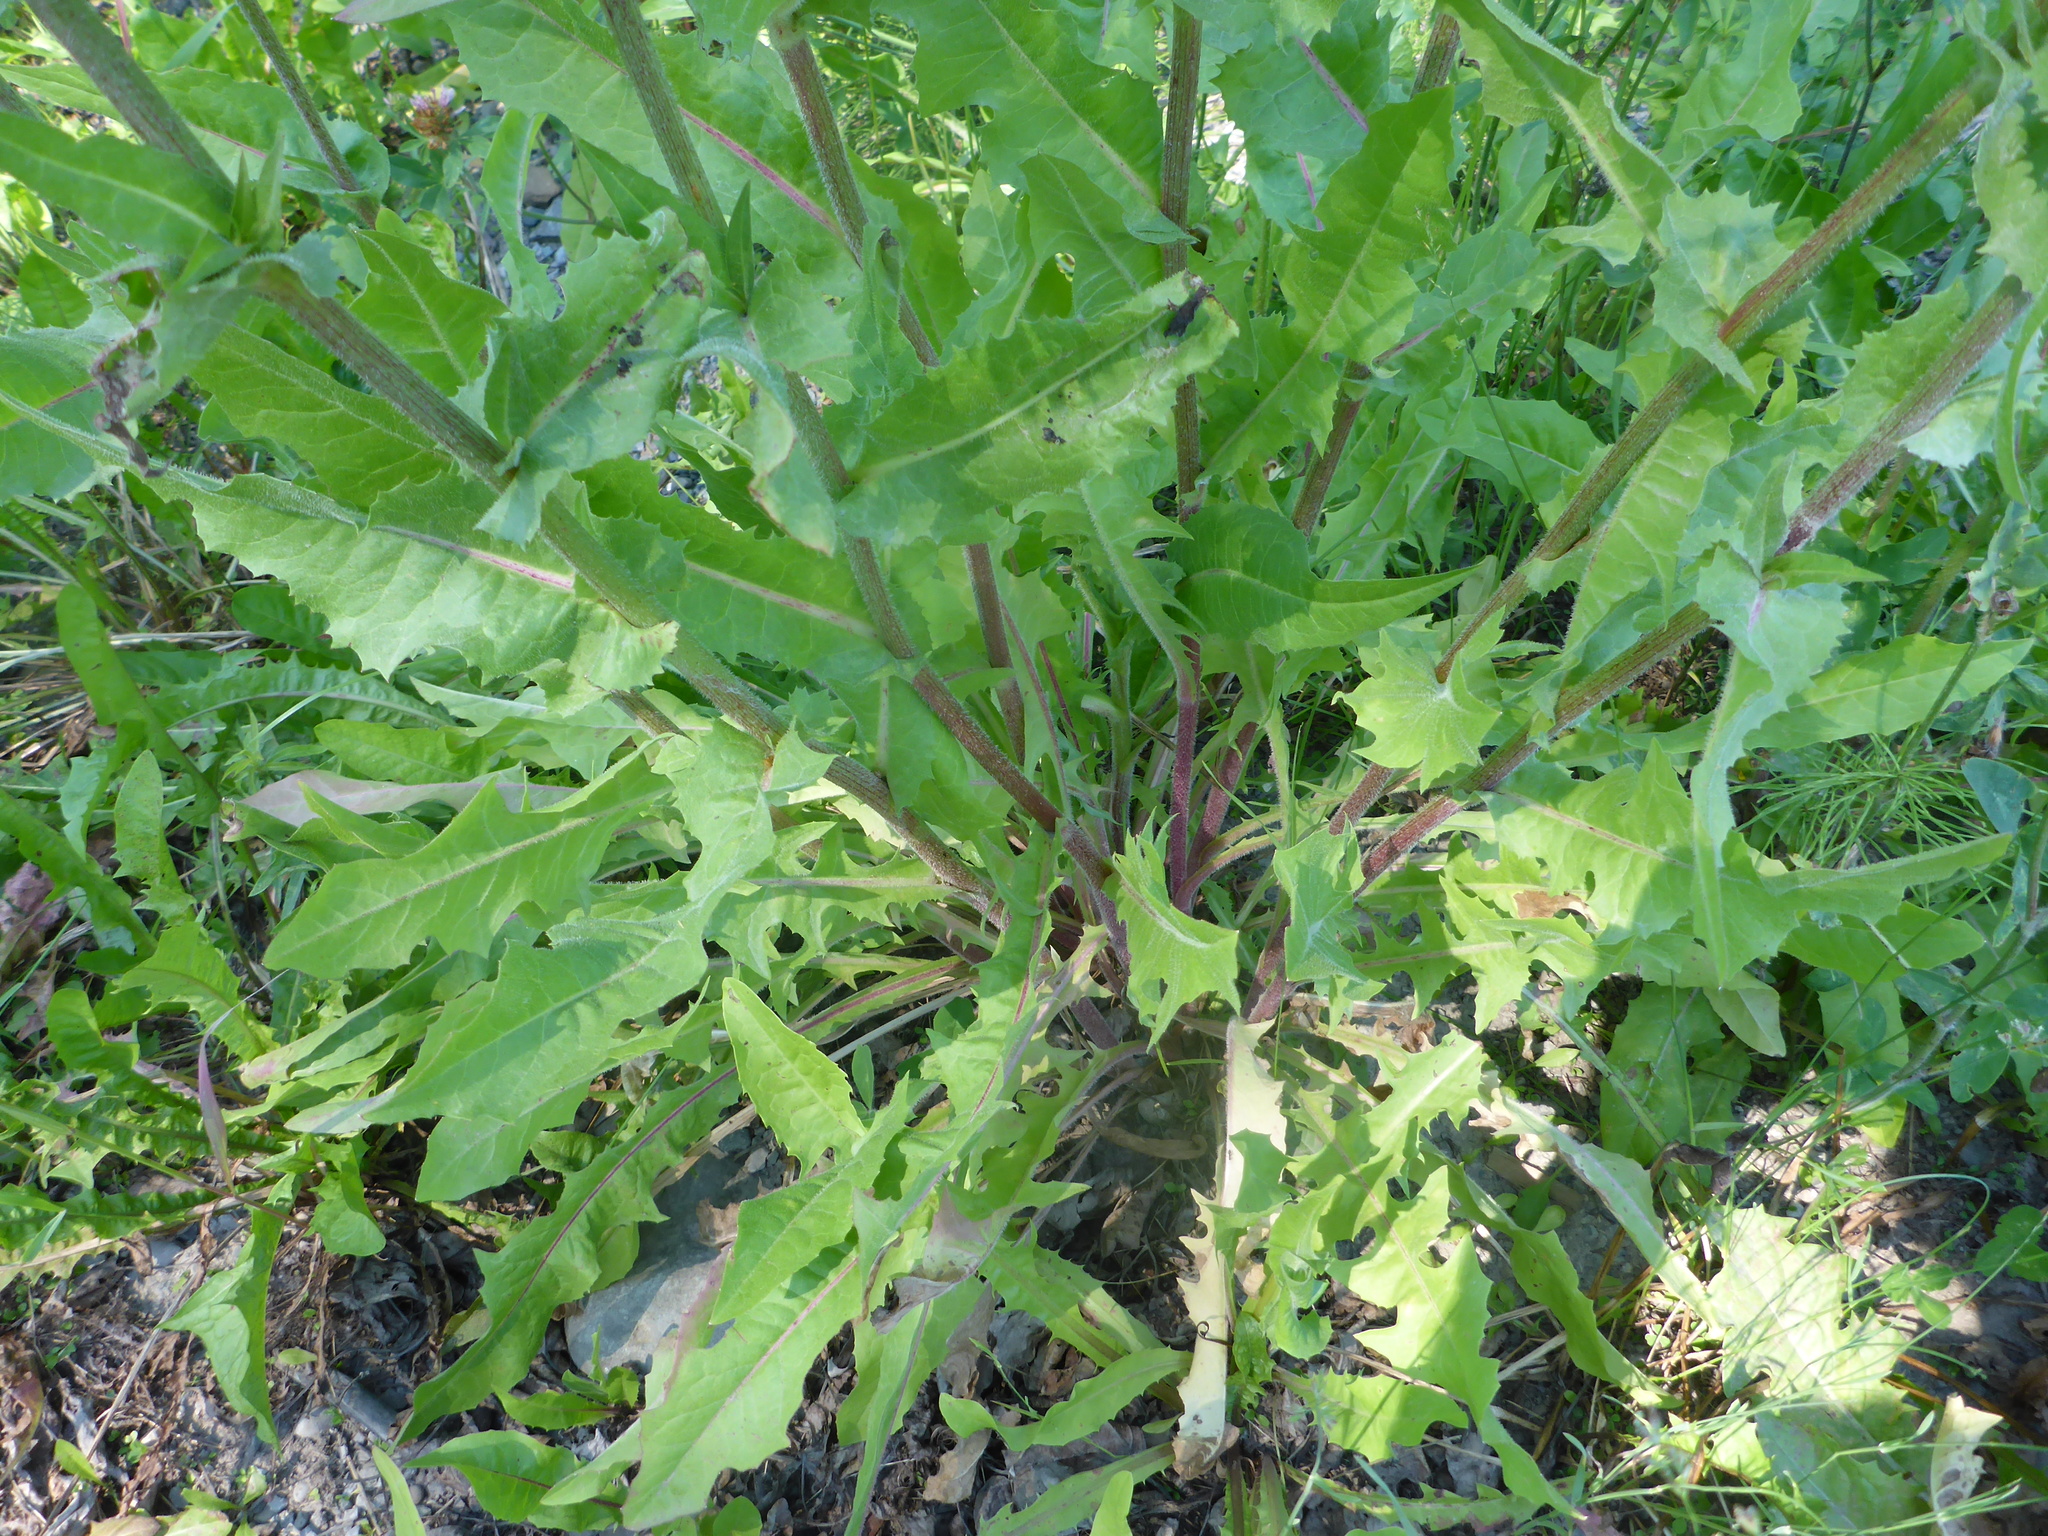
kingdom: Plantae
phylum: Tracheophyta
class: Magnoliopsida
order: Asterales
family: Asteraceae
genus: Cichorium
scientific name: Cichorium intybus
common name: Chicory
